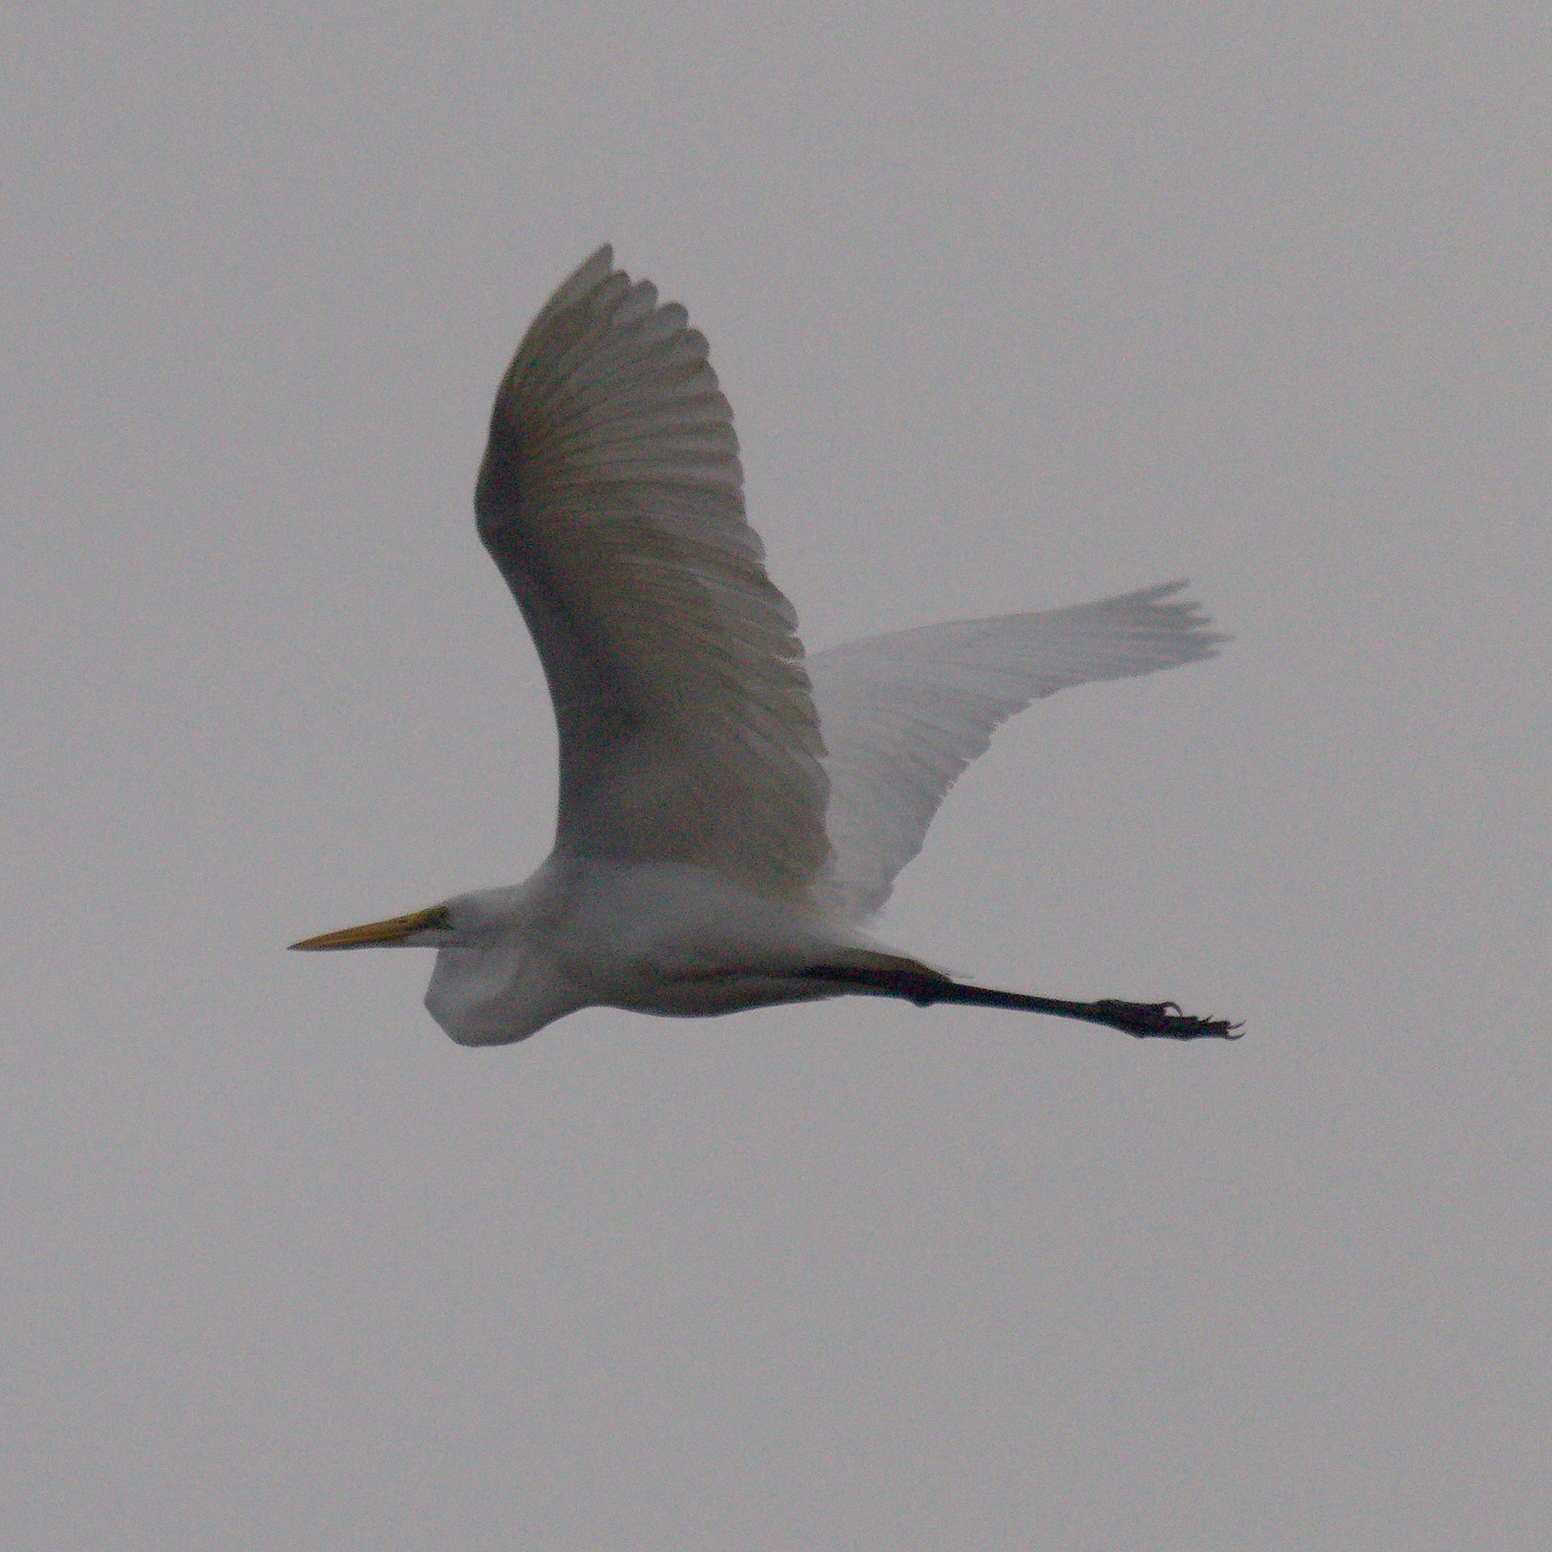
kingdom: Animalia
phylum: Chordata
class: Aves
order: Pelecaniformes
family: Ardeidae
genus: Ardea
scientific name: Ardea alba
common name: Great egret
